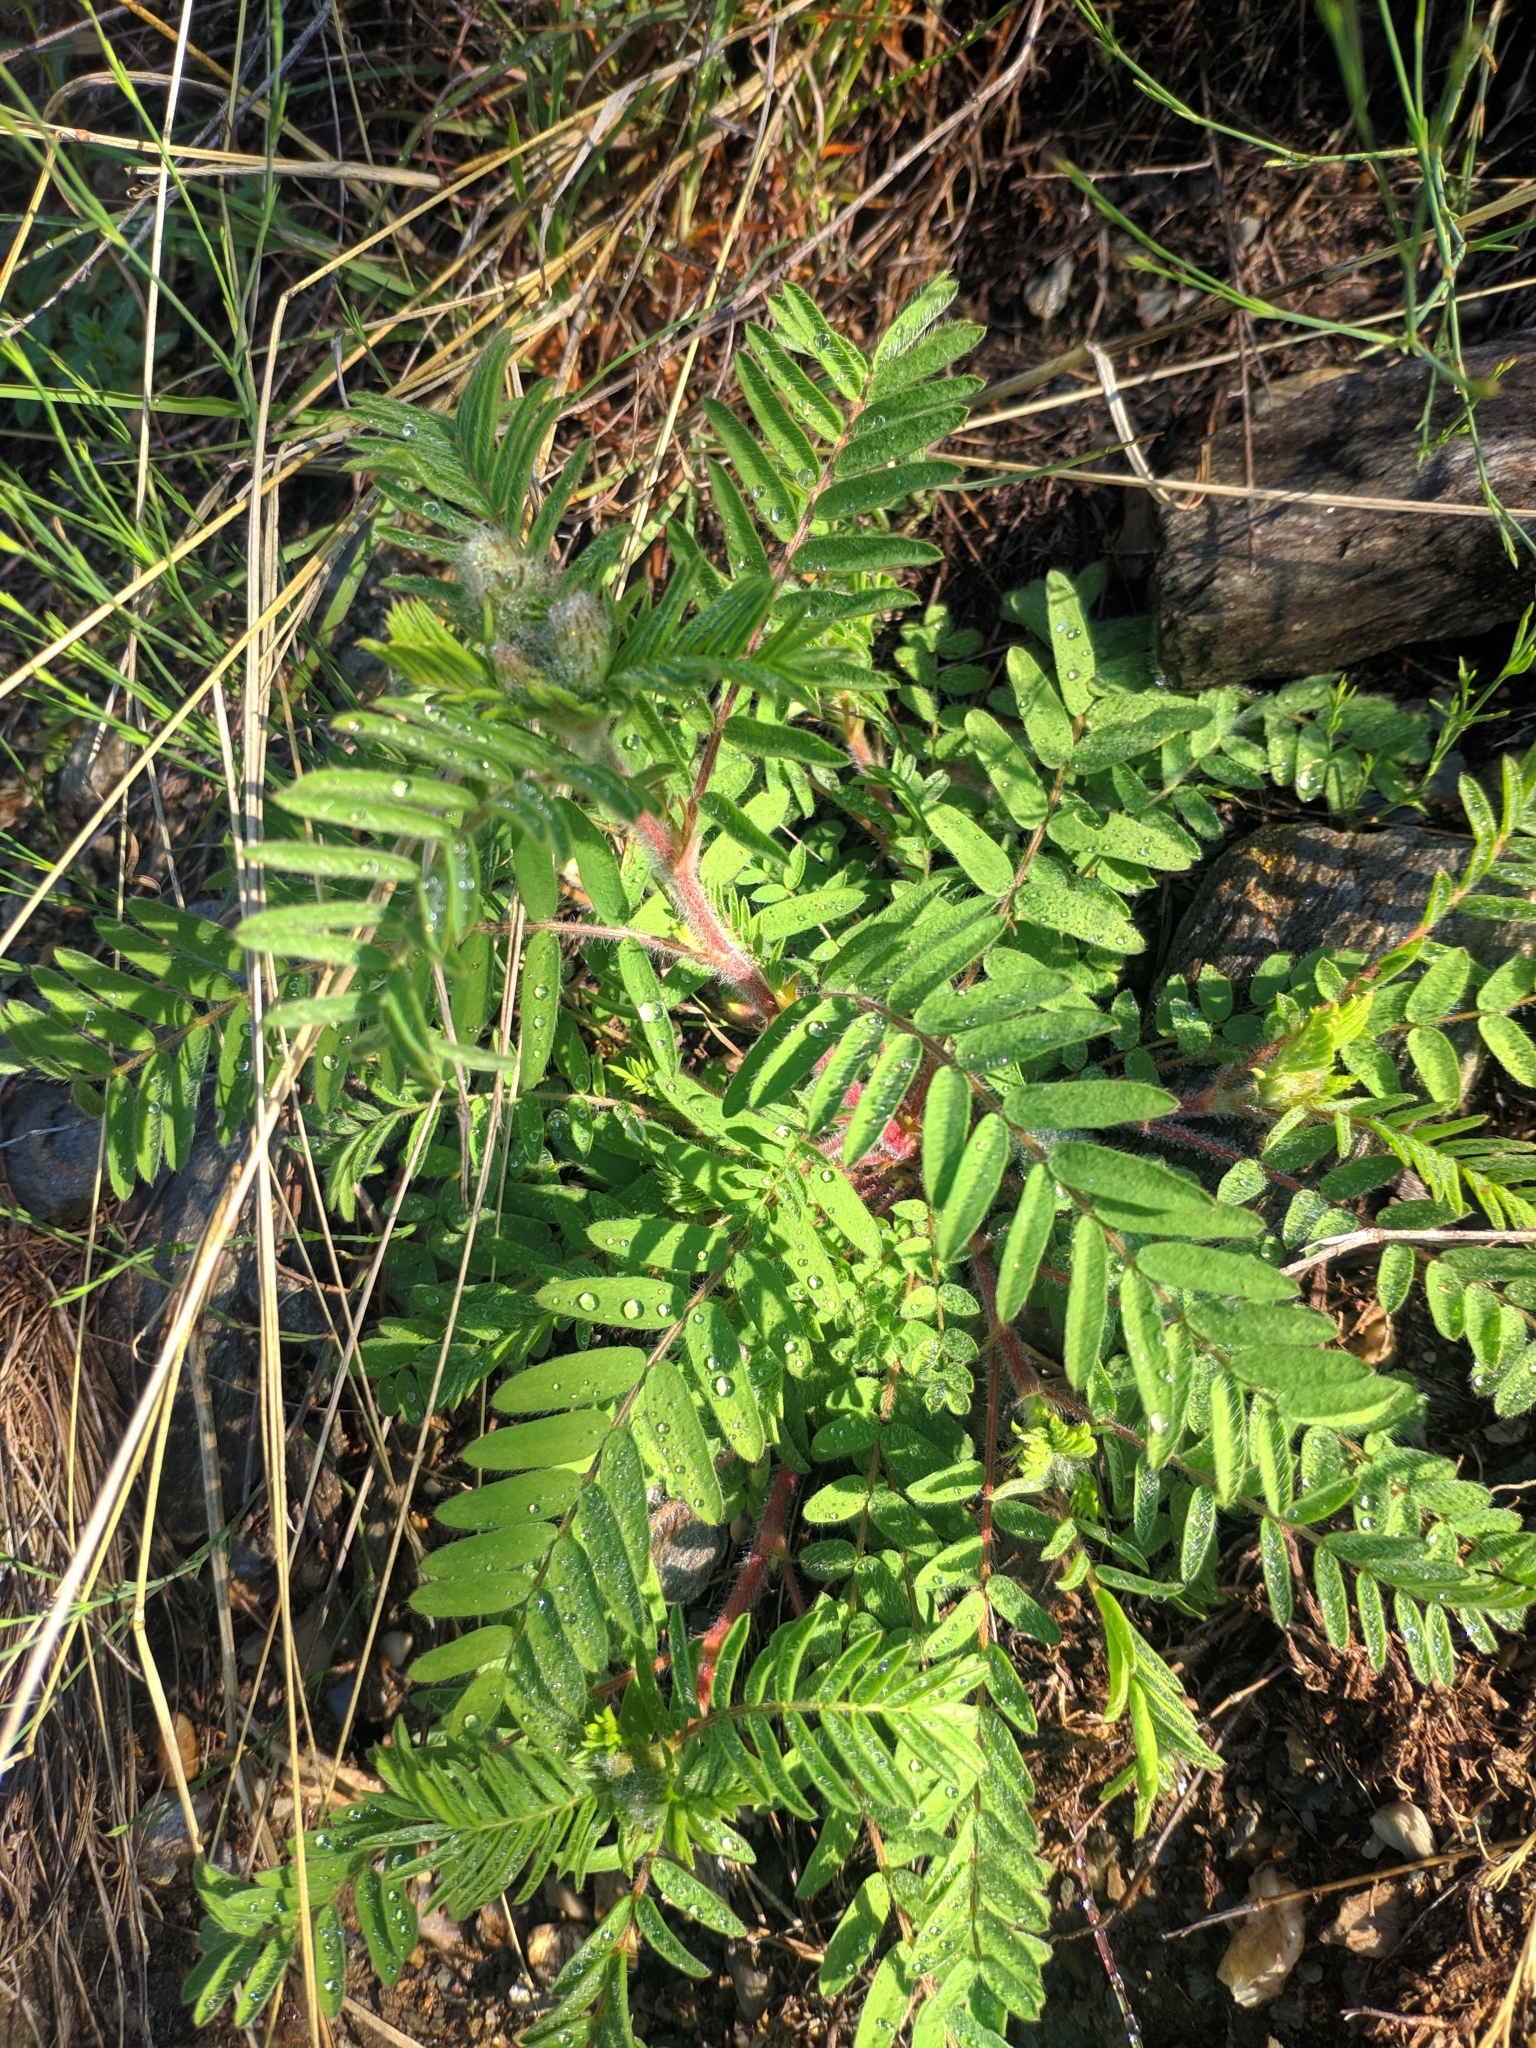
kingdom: Plantae
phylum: Tracheophyta
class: Magnoliopsida
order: Fabales
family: Fabaceae
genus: Oxytropis
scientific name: Oxytropis pilosa
